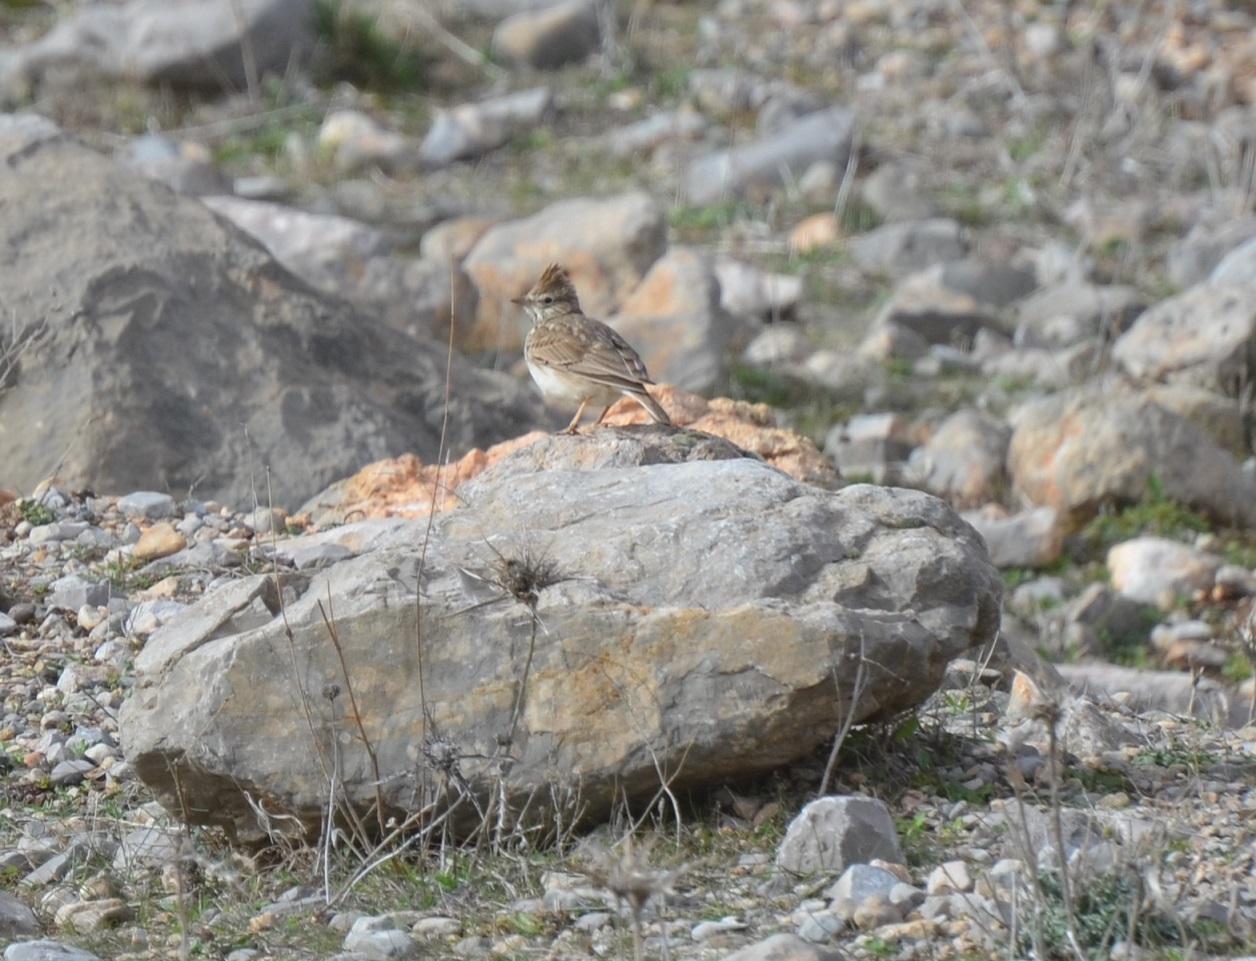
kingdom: Animalia
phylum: Chordata
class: Aves
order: Passeriformes
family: Alaudidae
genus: Galerida
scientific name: Galerida theklae
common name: Thekla lark
